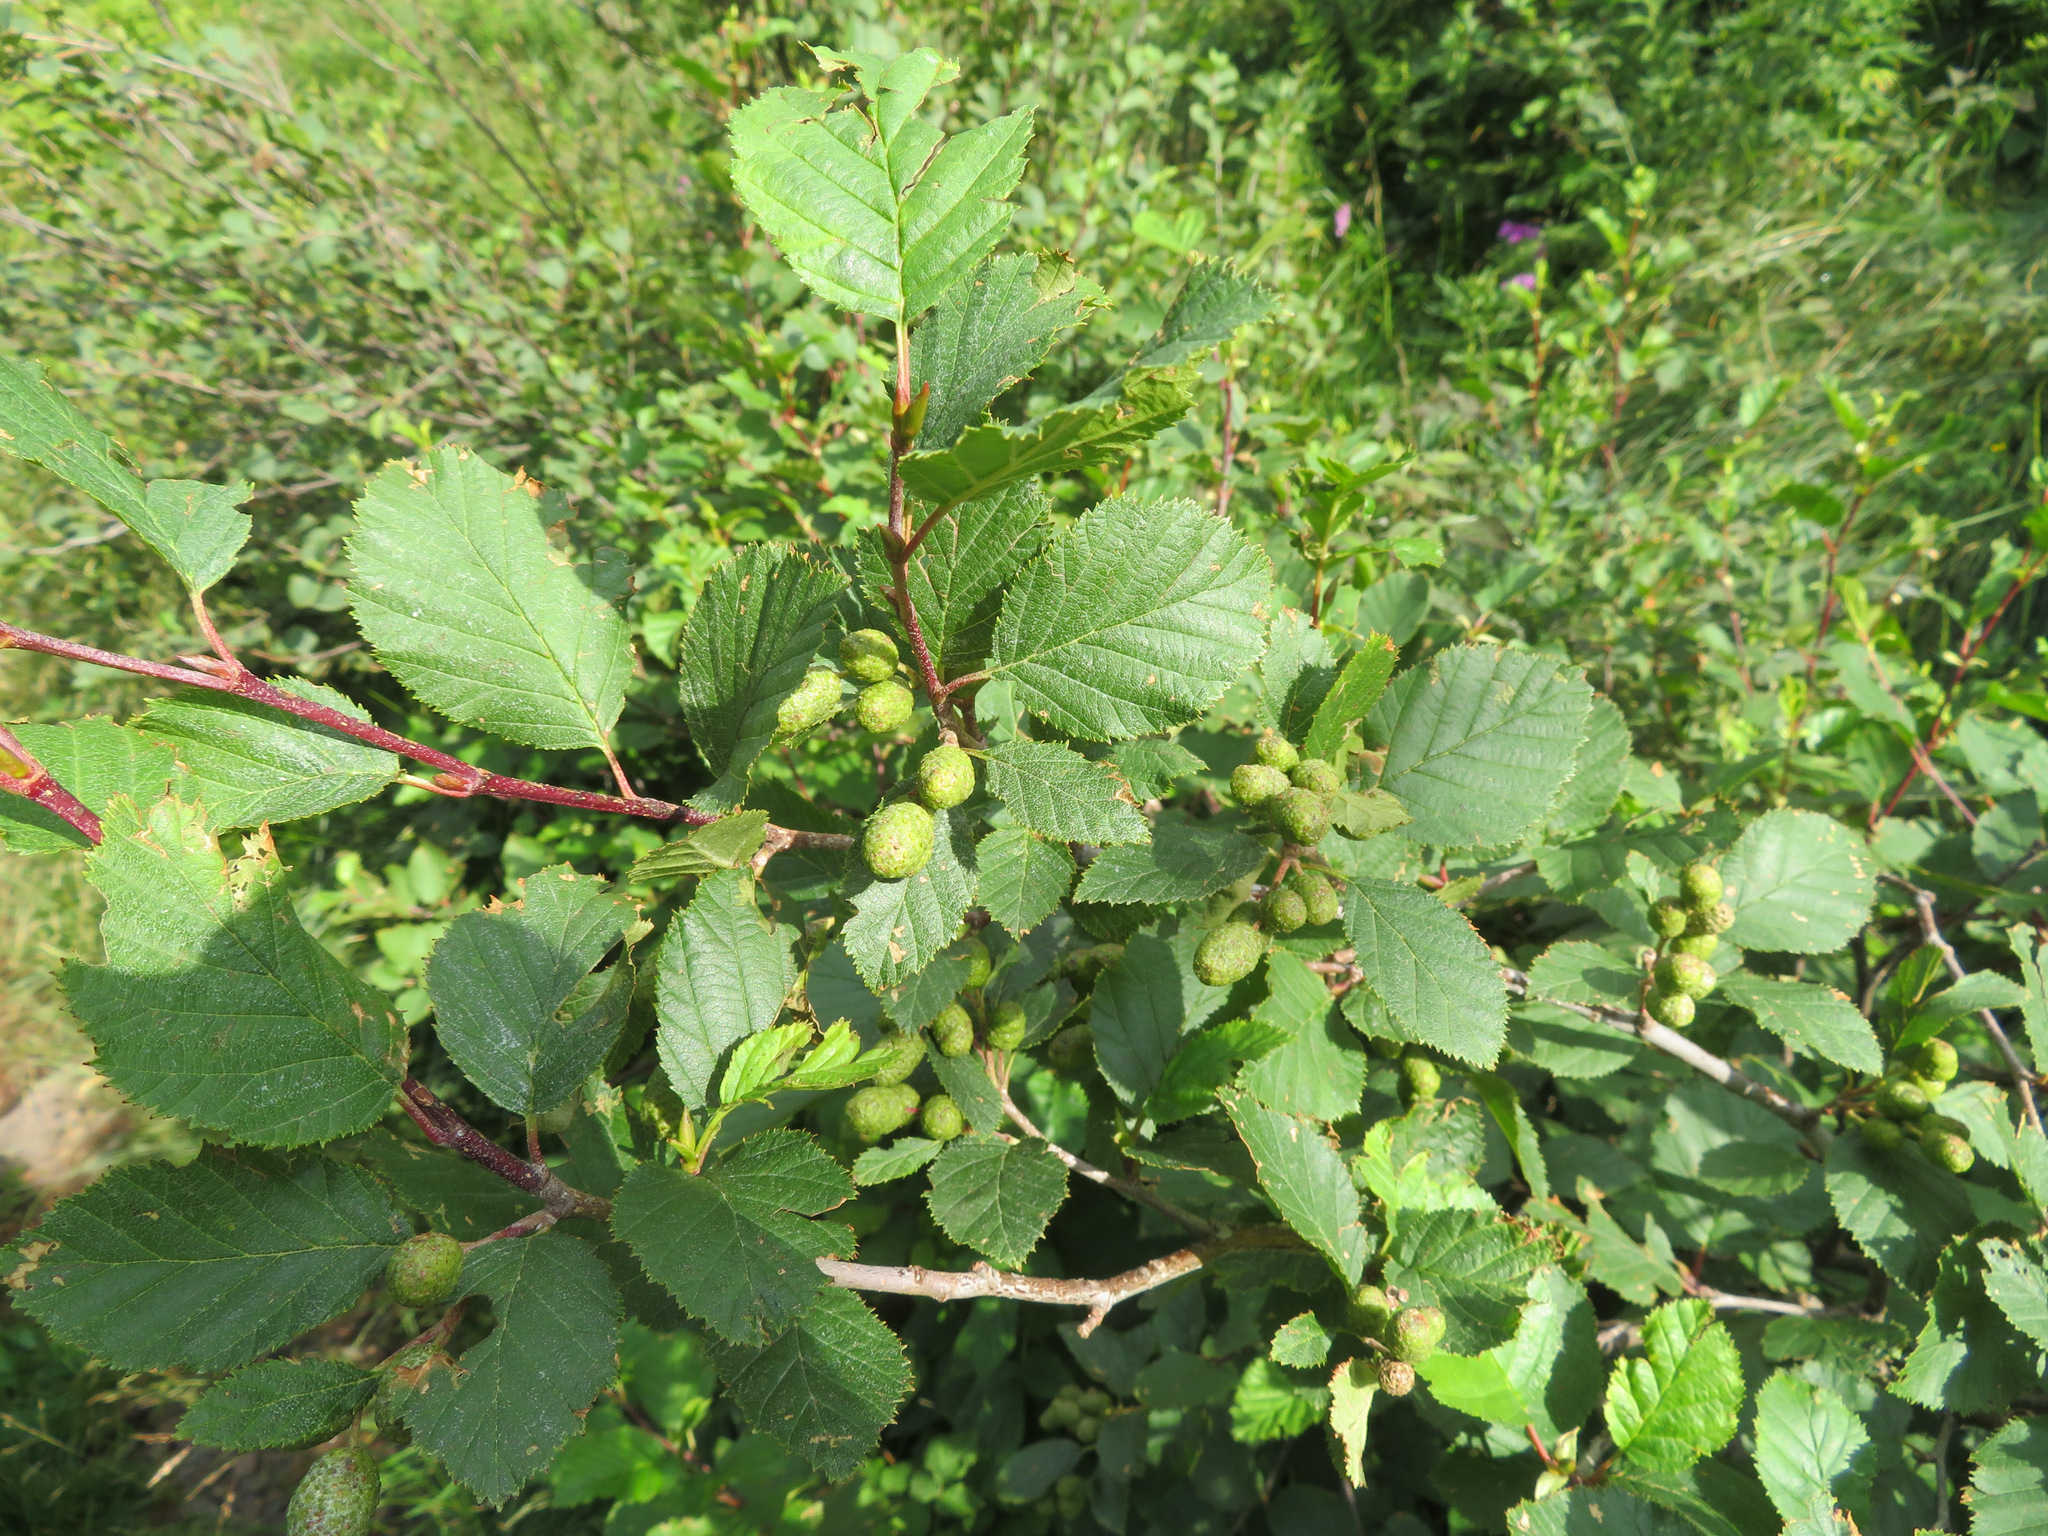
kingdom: Plantae
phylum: Tracheophyta
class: Magnoliopsida
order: Fagales
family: Betulaceae
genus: Alnus
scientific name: Alnus alnobetula
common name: Green alder
